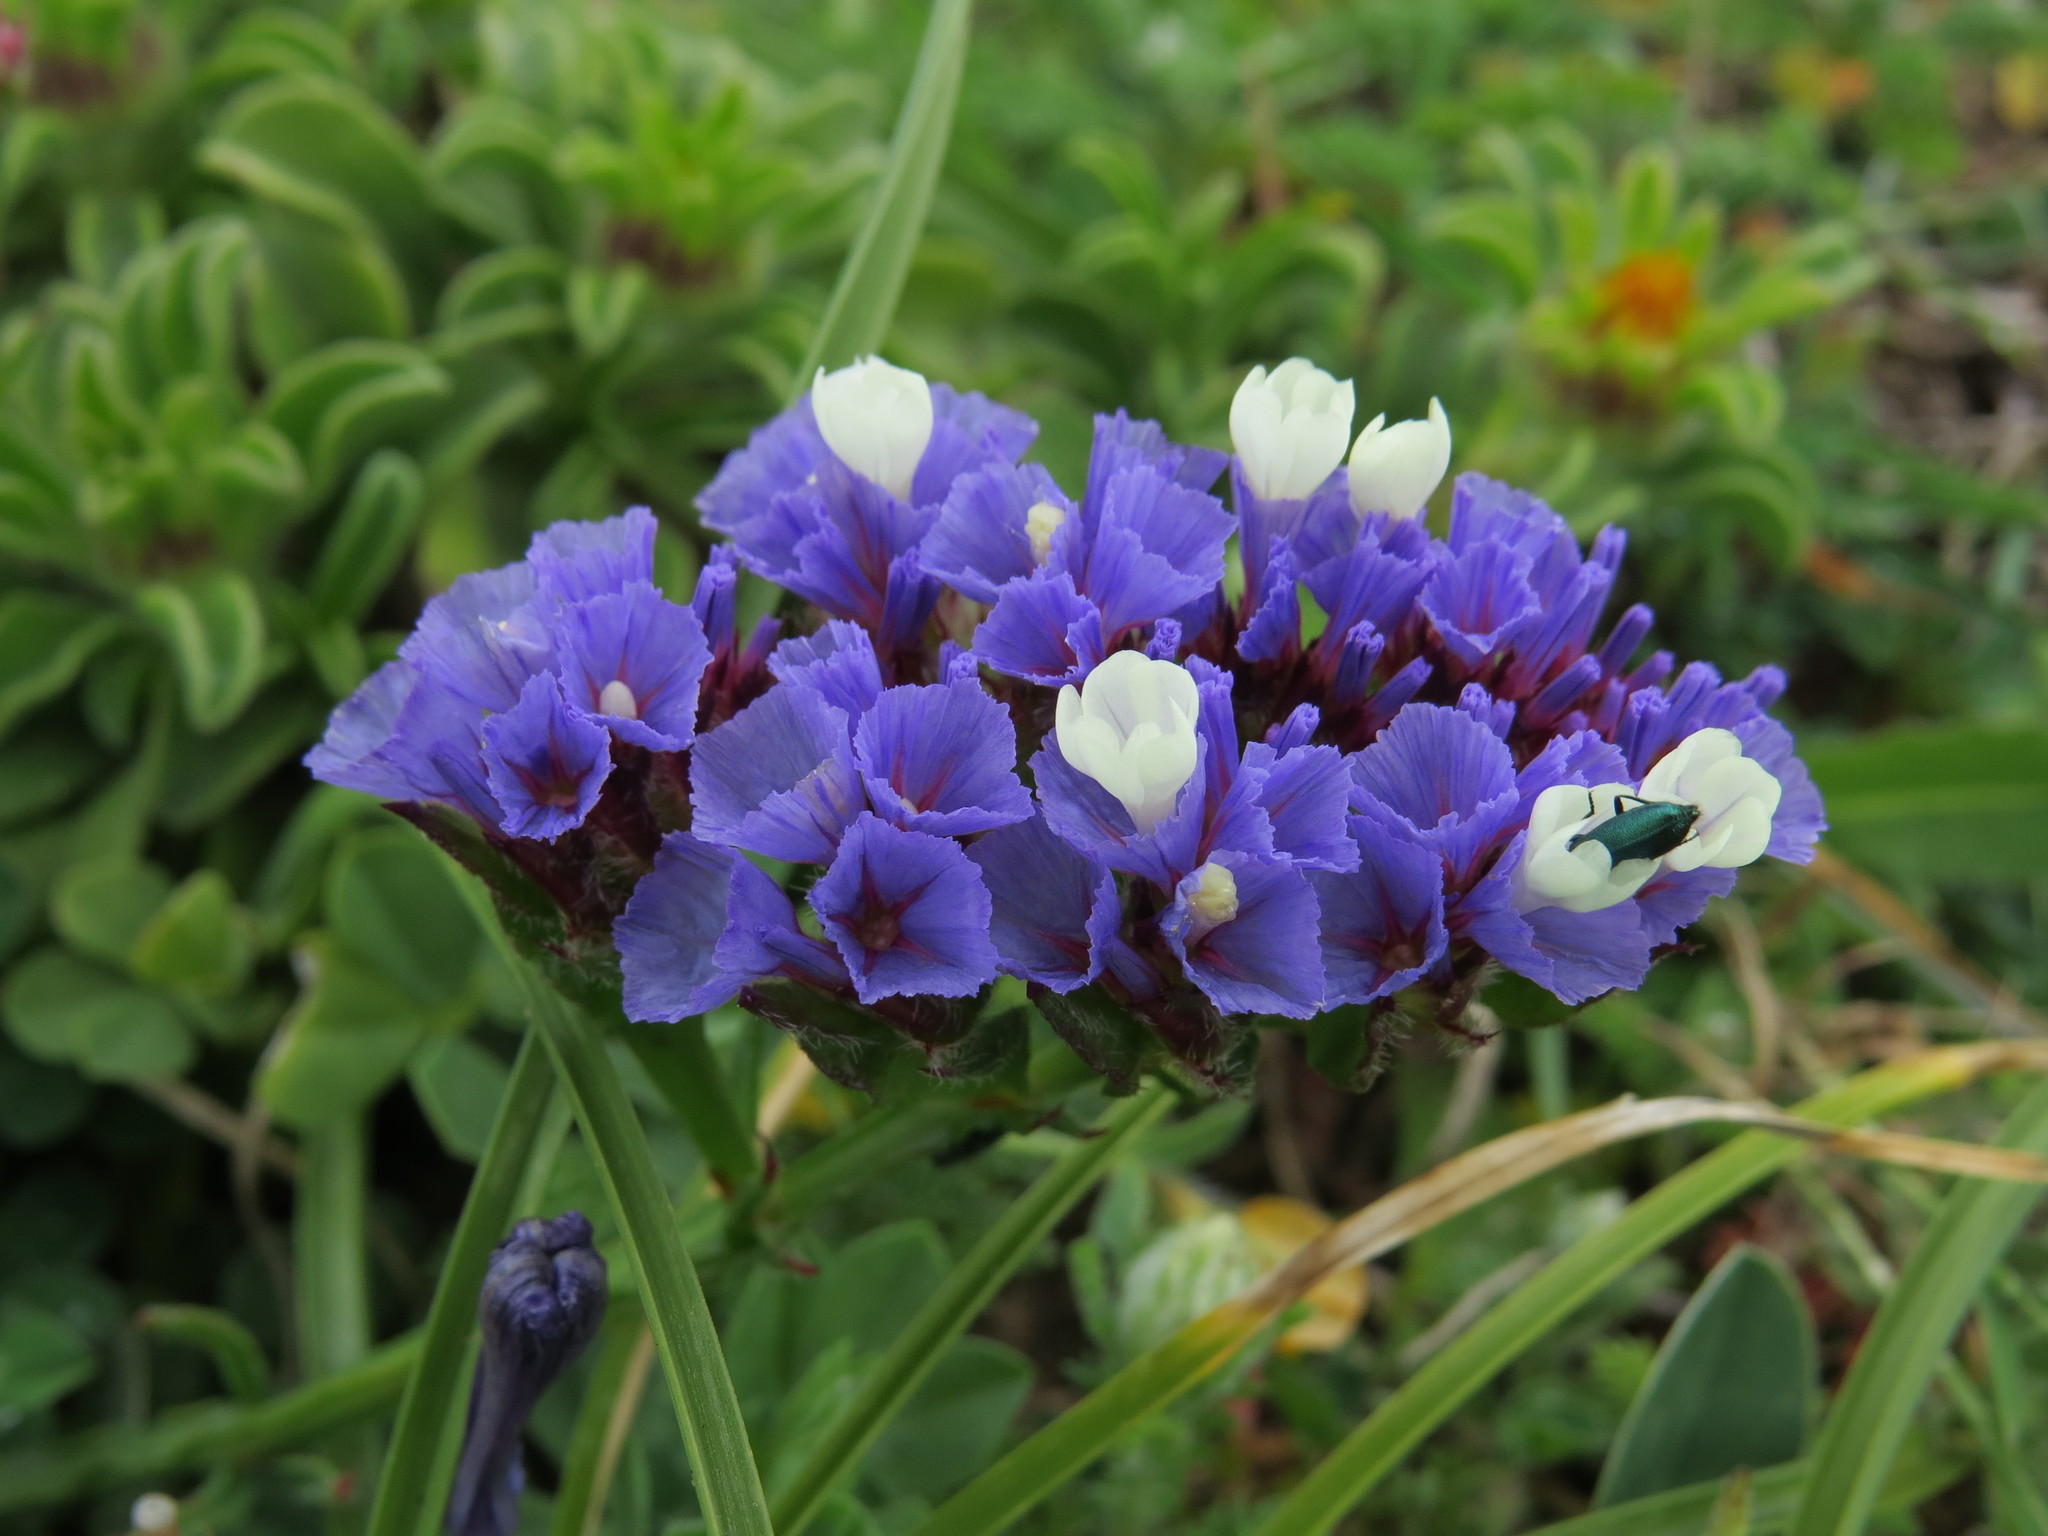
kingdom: Plantae
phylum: Tracheophyta
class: Magnoliopsida
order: Caryophyllales
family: Plumbaginaceae
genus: Limonium
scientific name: Limonium sinuatum
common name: Statice
